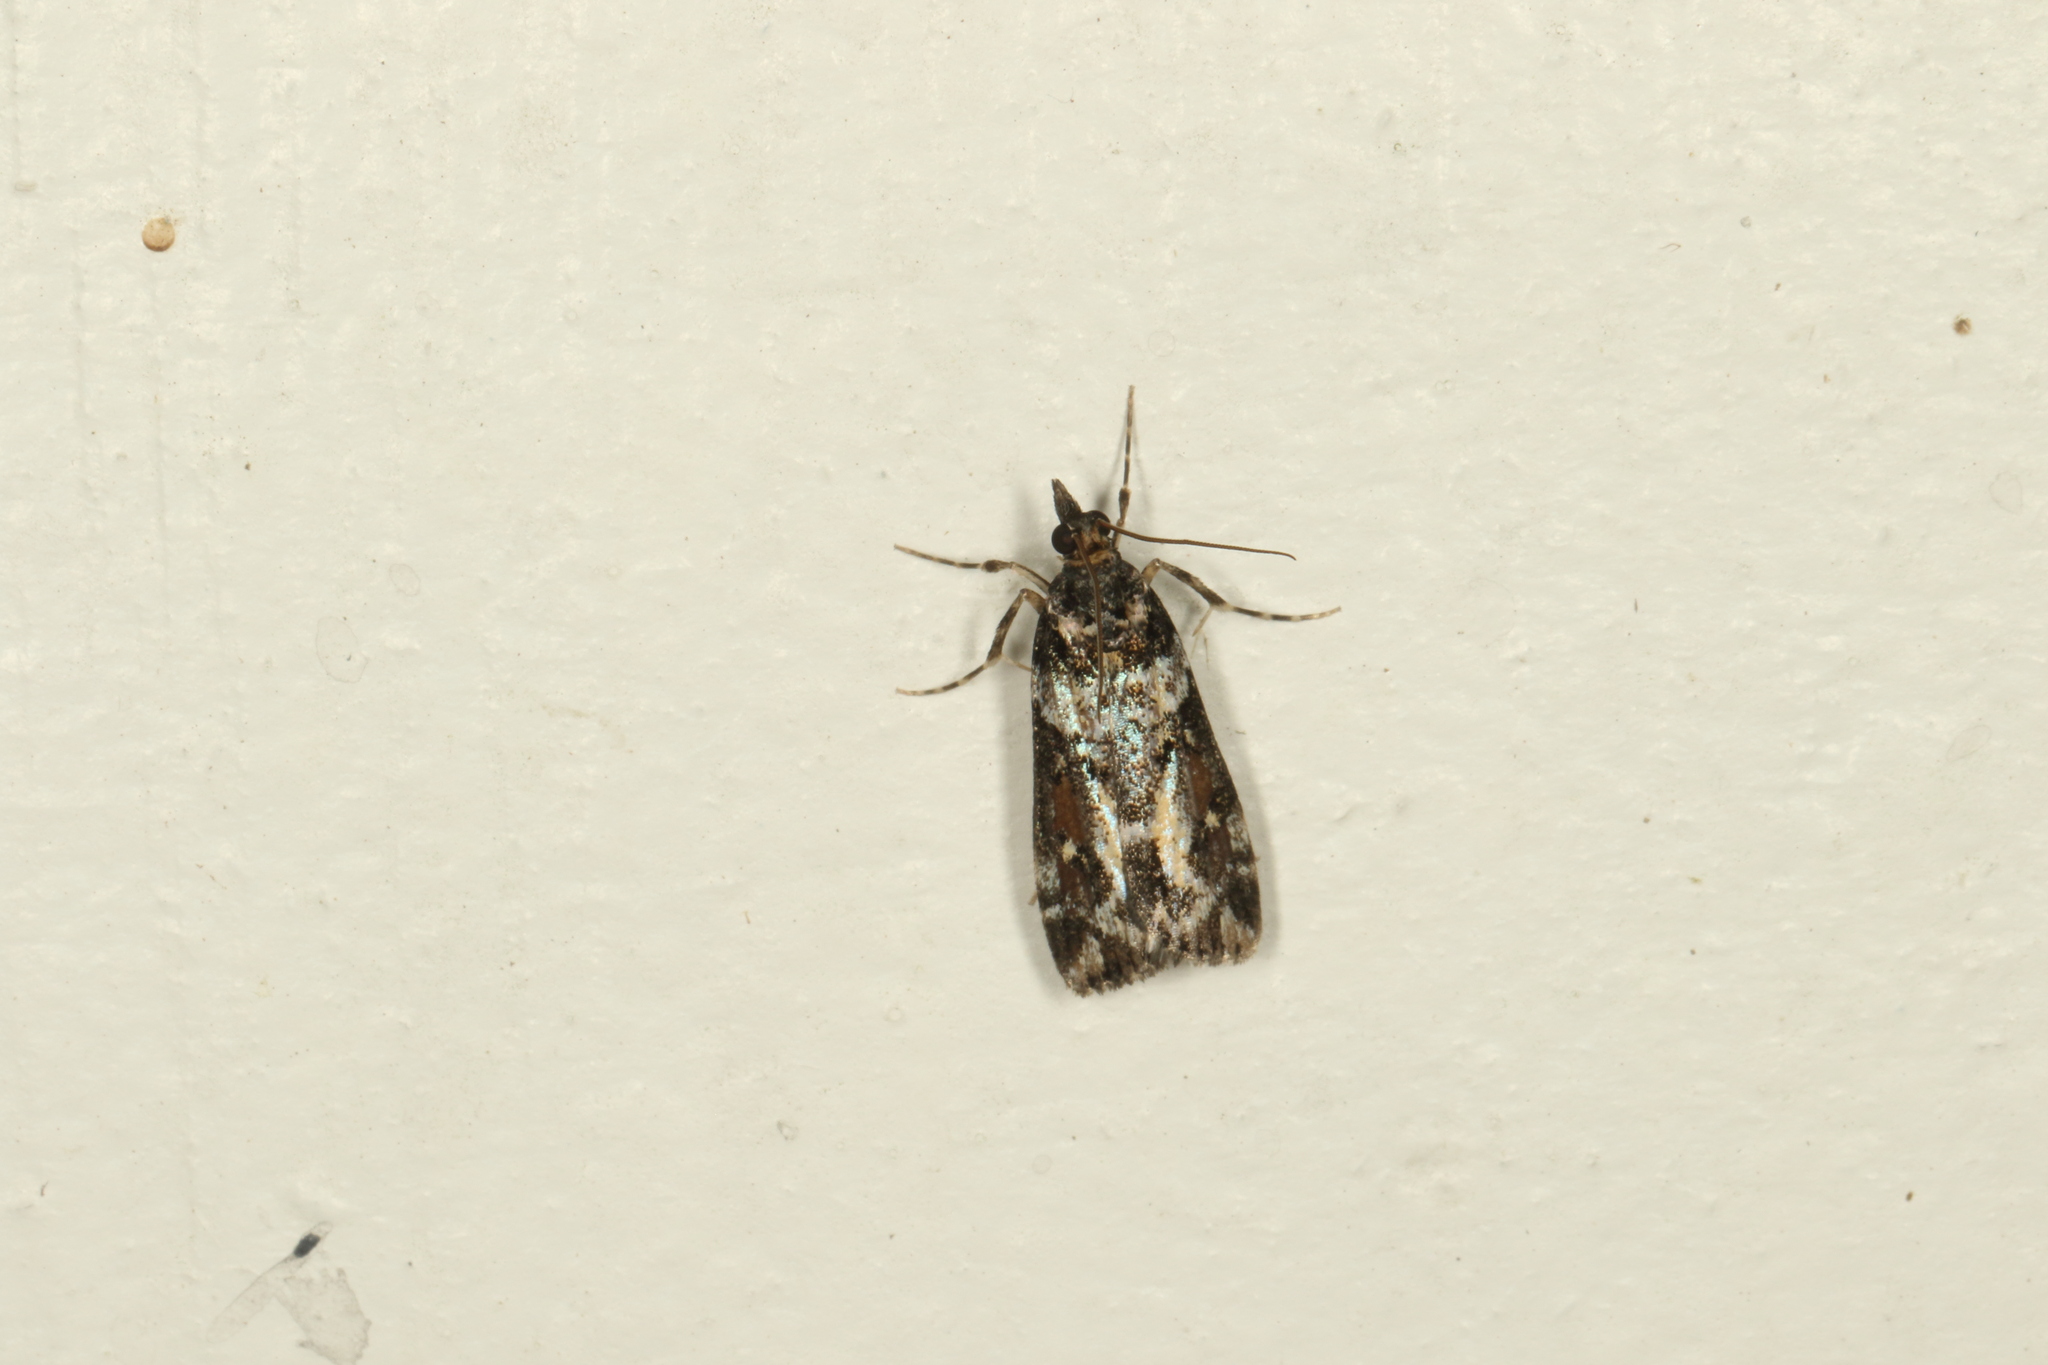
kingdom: Animalia
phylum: Arthropoda
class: Insecta
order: Lepidoptera
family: Crambidae
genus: Eudonia
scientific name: Eudonia diphtheralis
